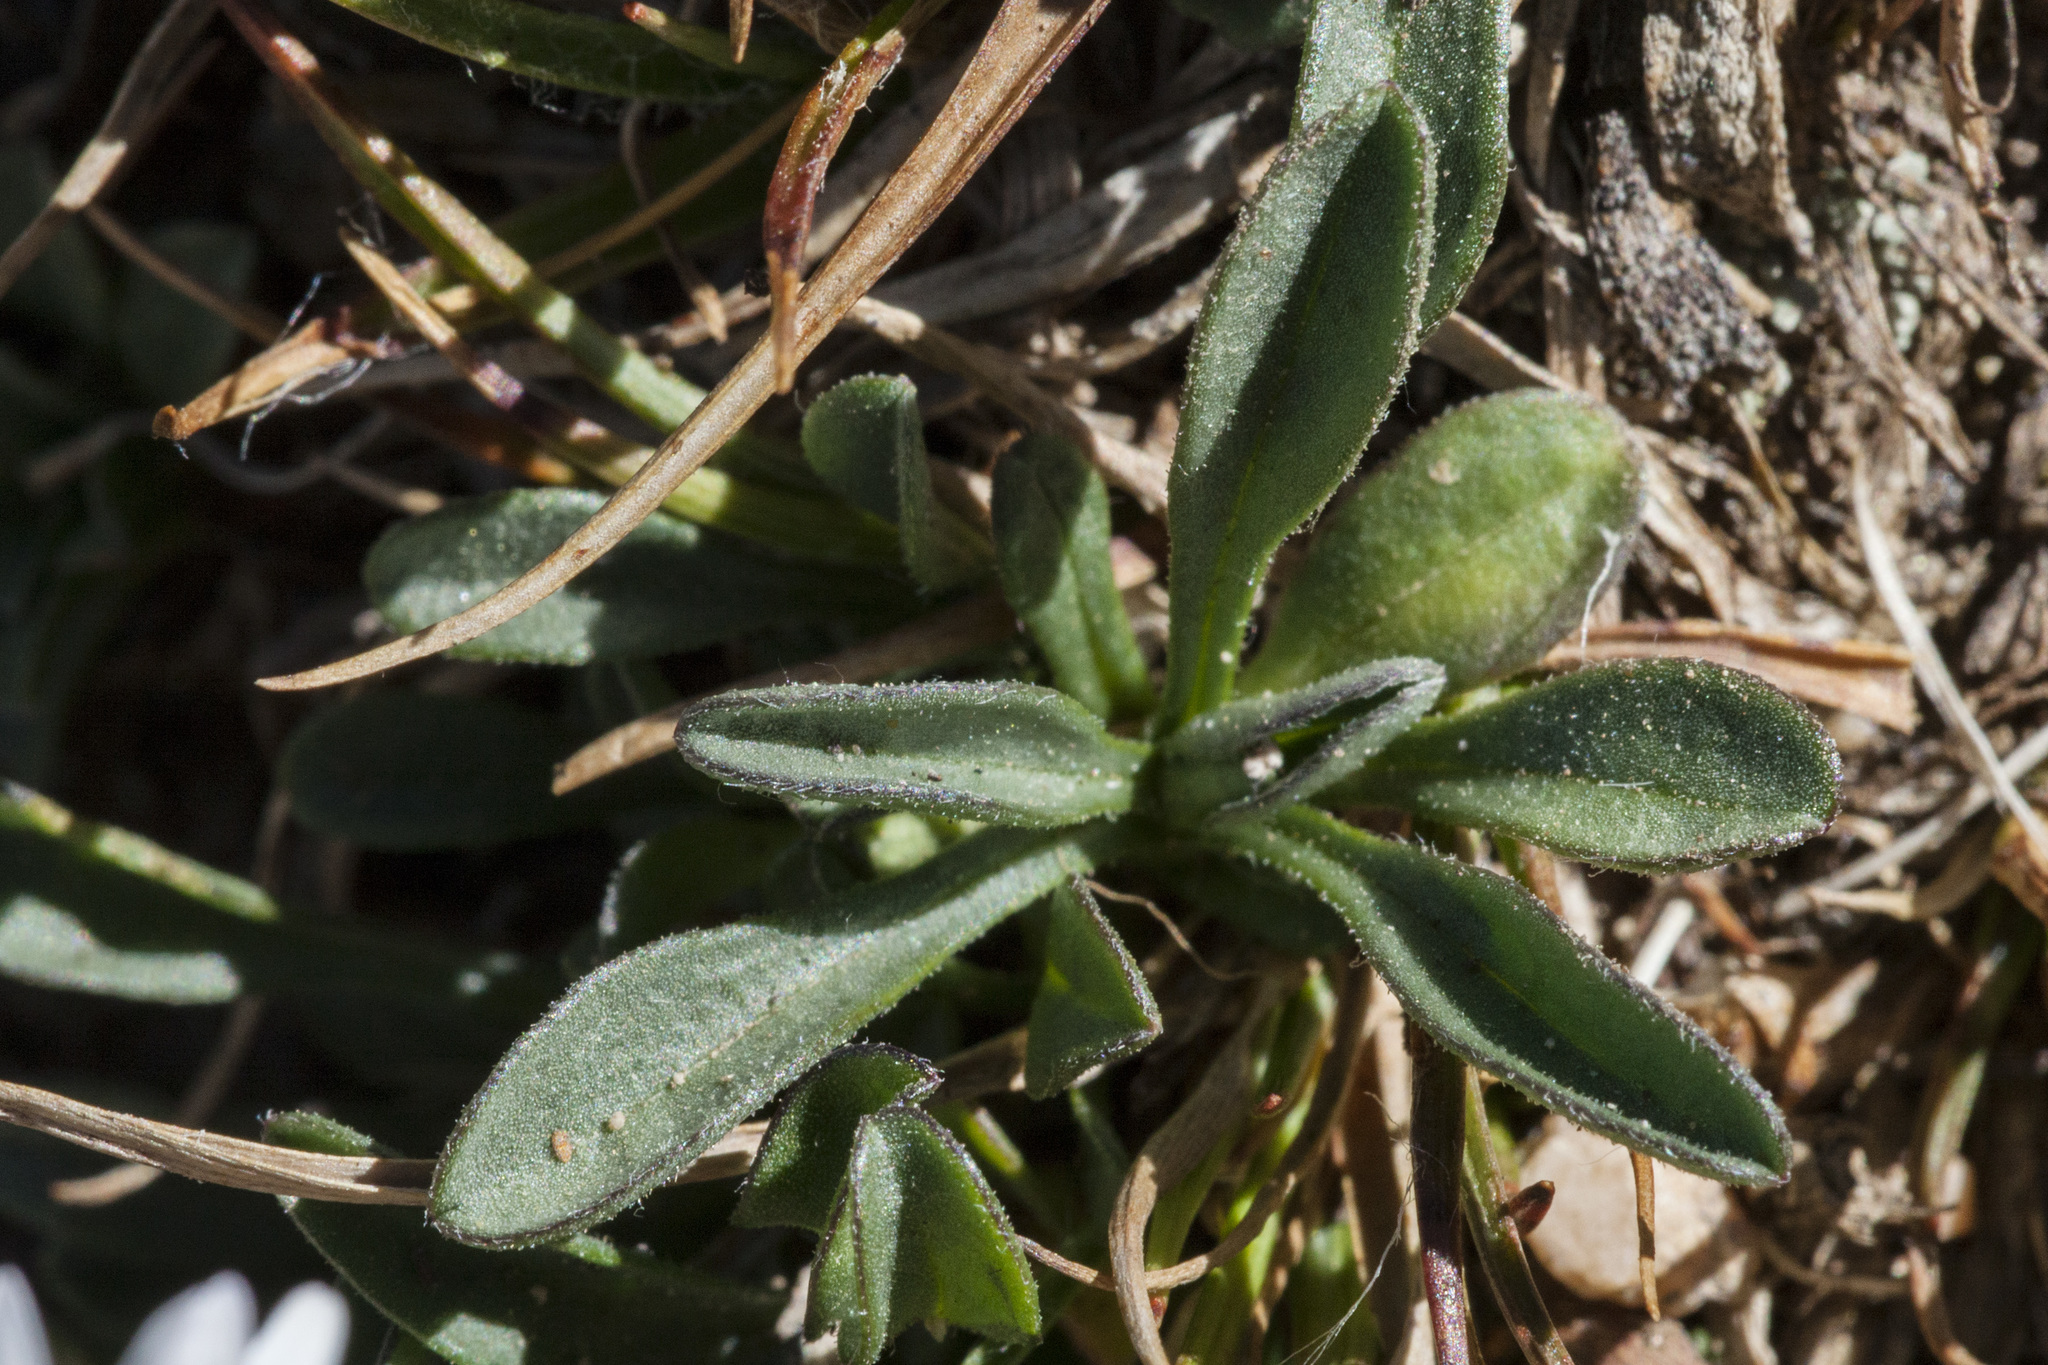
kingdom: Plantae
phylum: Tracheophyta
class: Magnoliopsida
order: Asterales
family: Asteraceae
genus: Erigeron
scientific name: Erigeron melanocephalus
